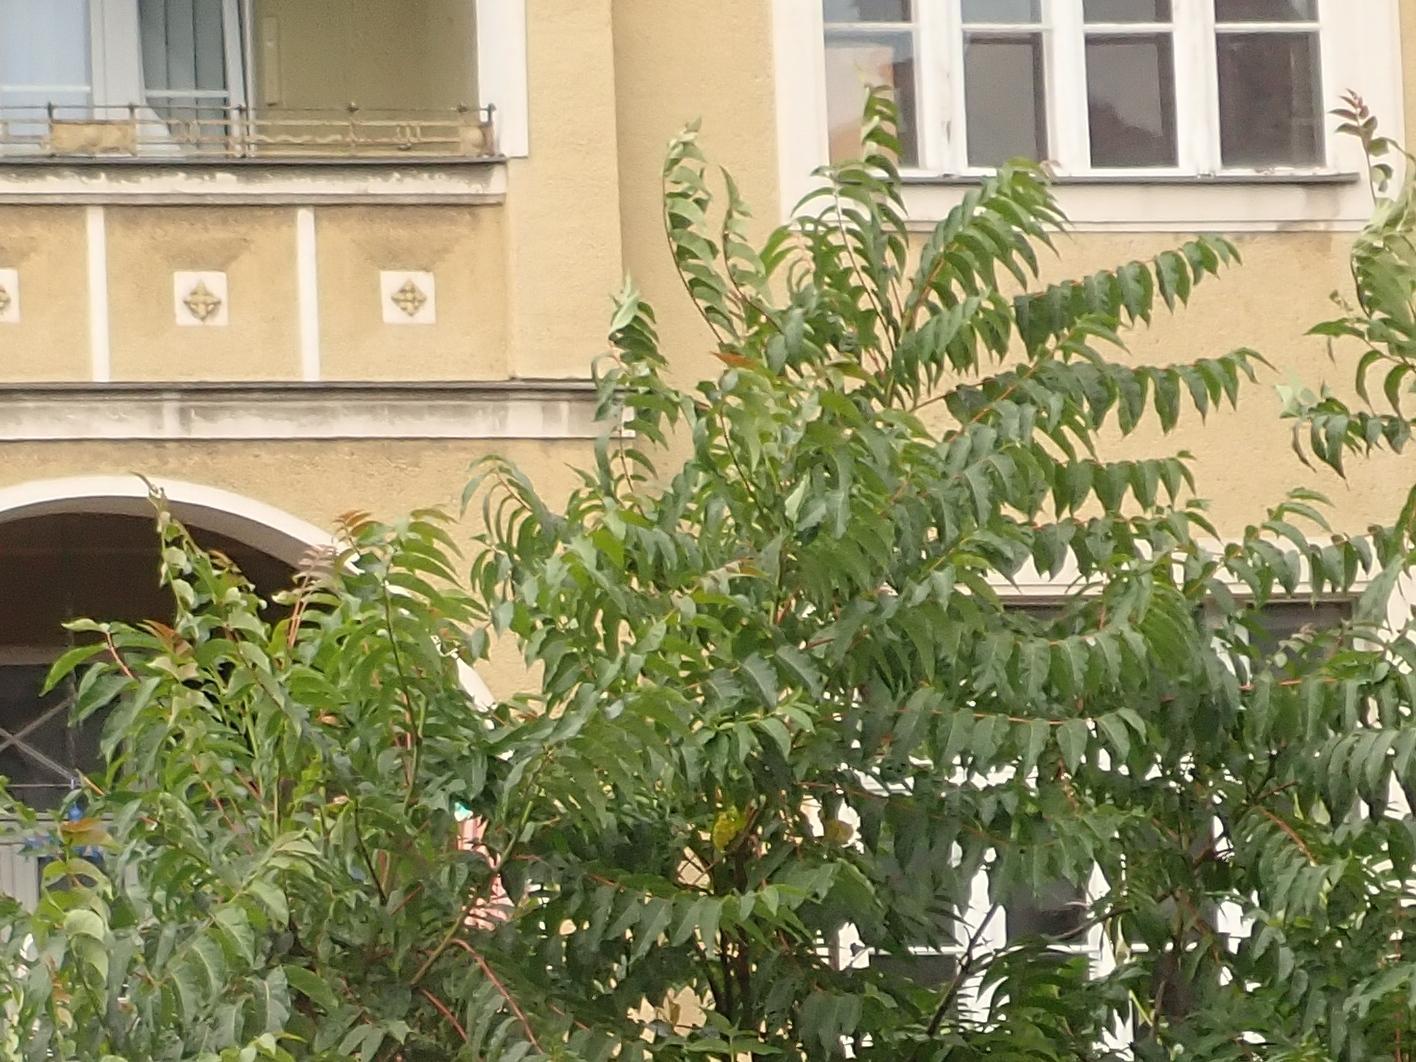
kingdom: Plantae
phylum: Tracheophyta
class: Magnoliopsida
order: Sapindales
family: Simaroubaceae
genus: Ailanthus
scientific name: Ailanthus altissima
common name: Tree-of-heaven
